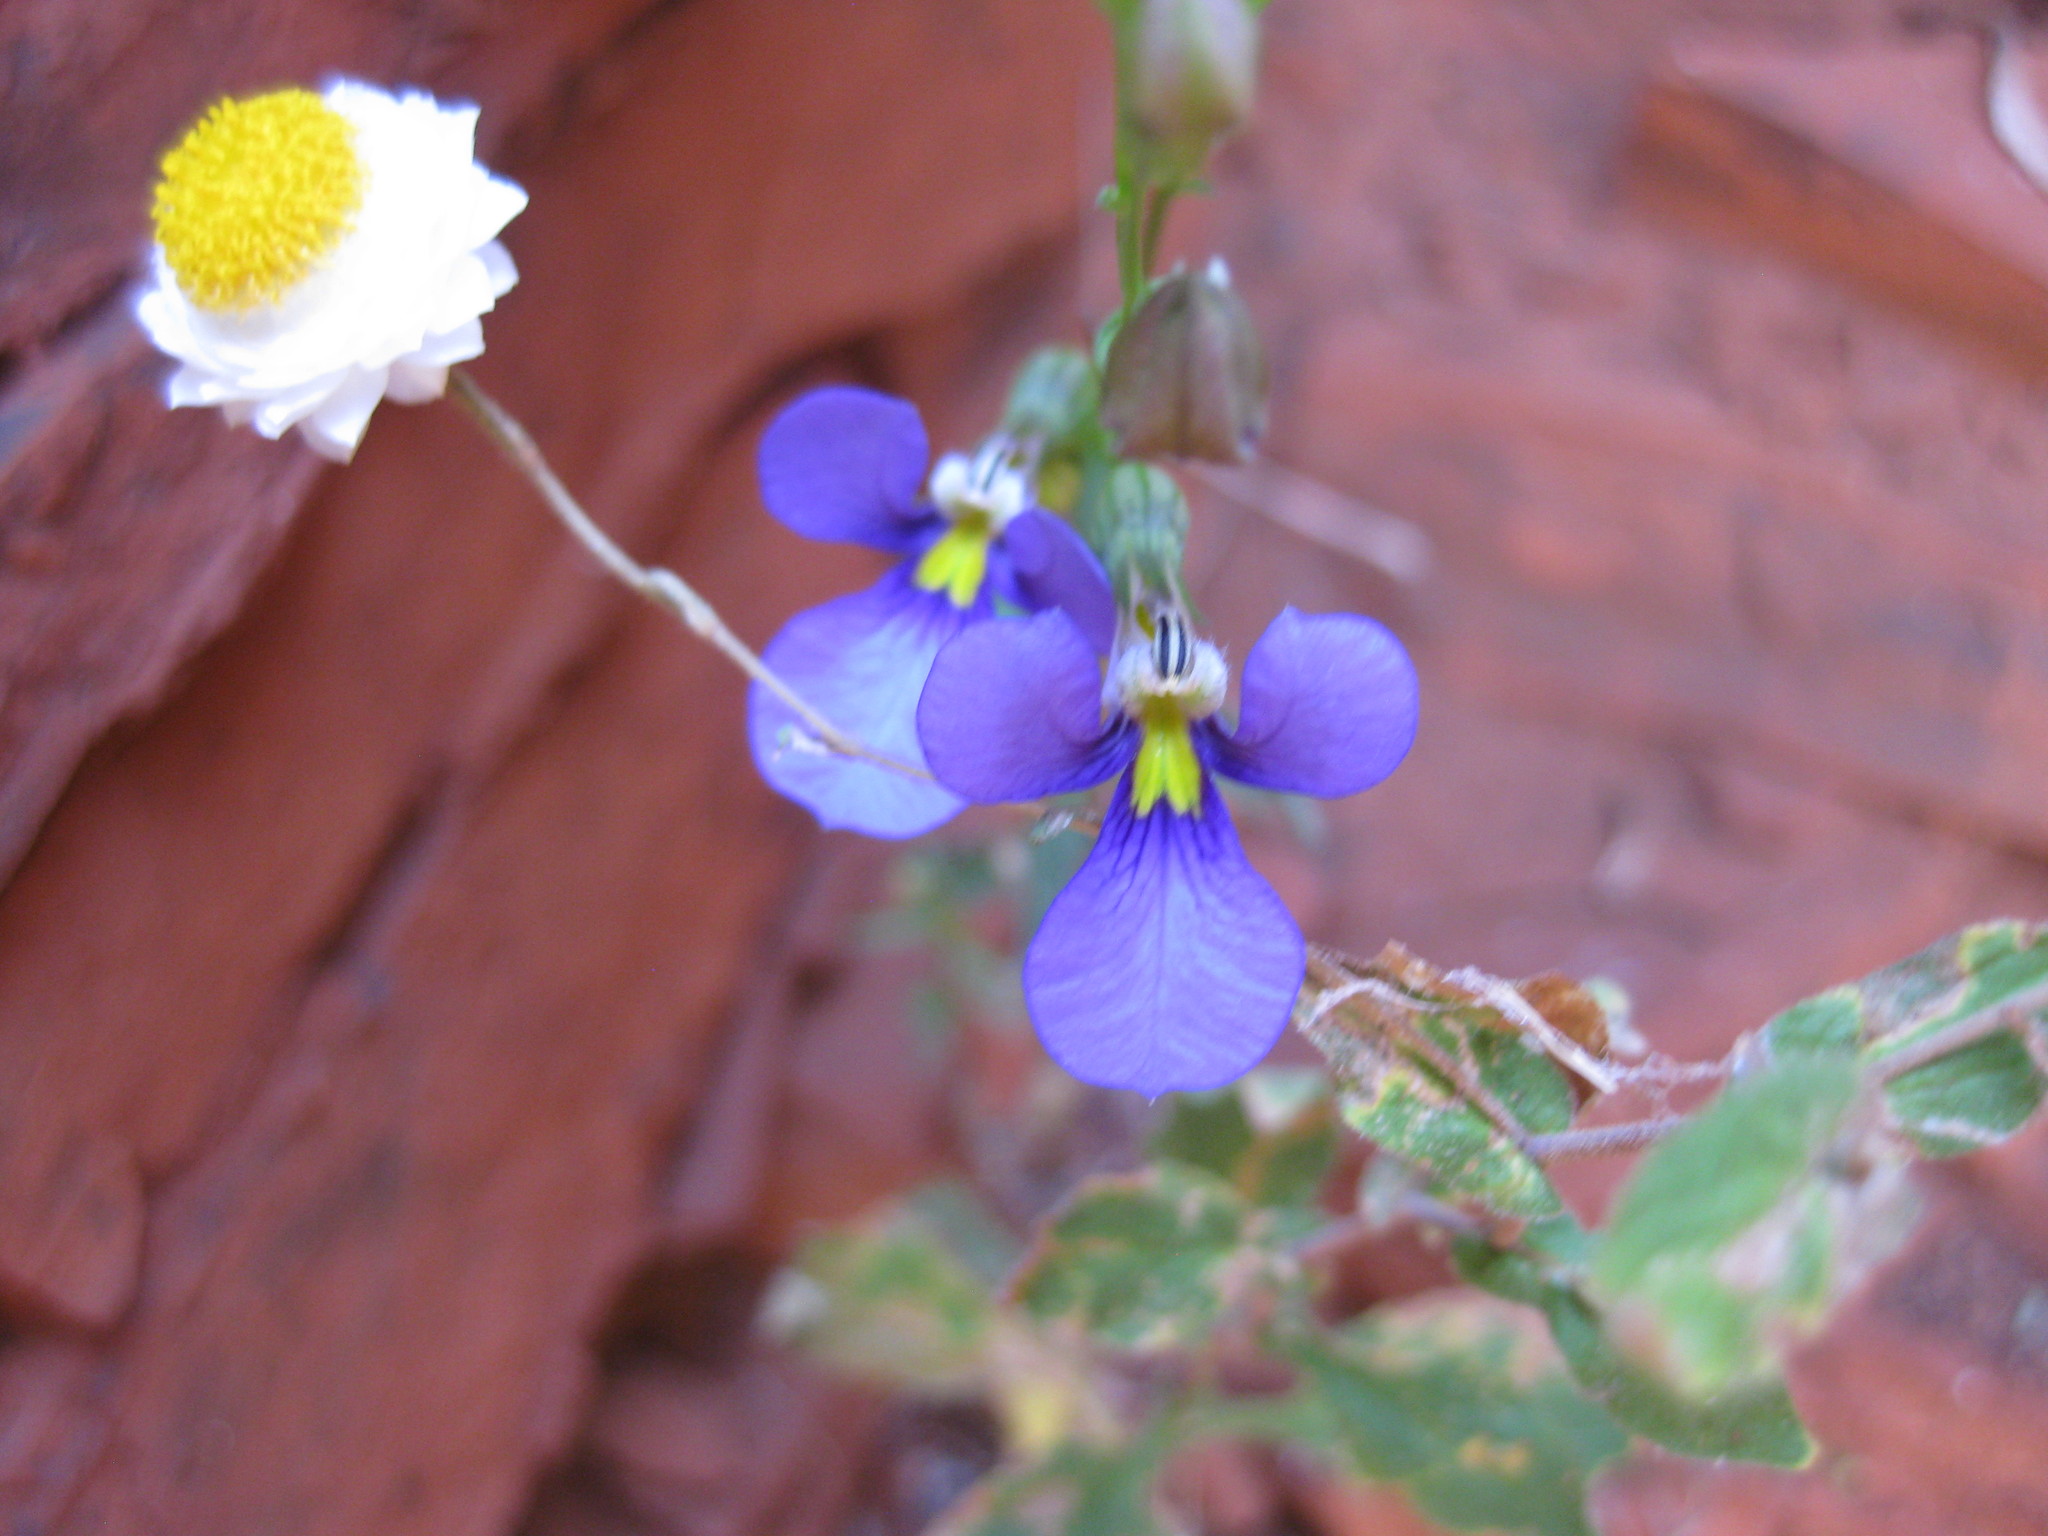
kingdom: Plantae
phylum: Tracheophyta
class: Magnoliopsida
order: Asterales
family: Campanulaceae
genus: Lobelia
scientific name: Lobelia heterophylla
